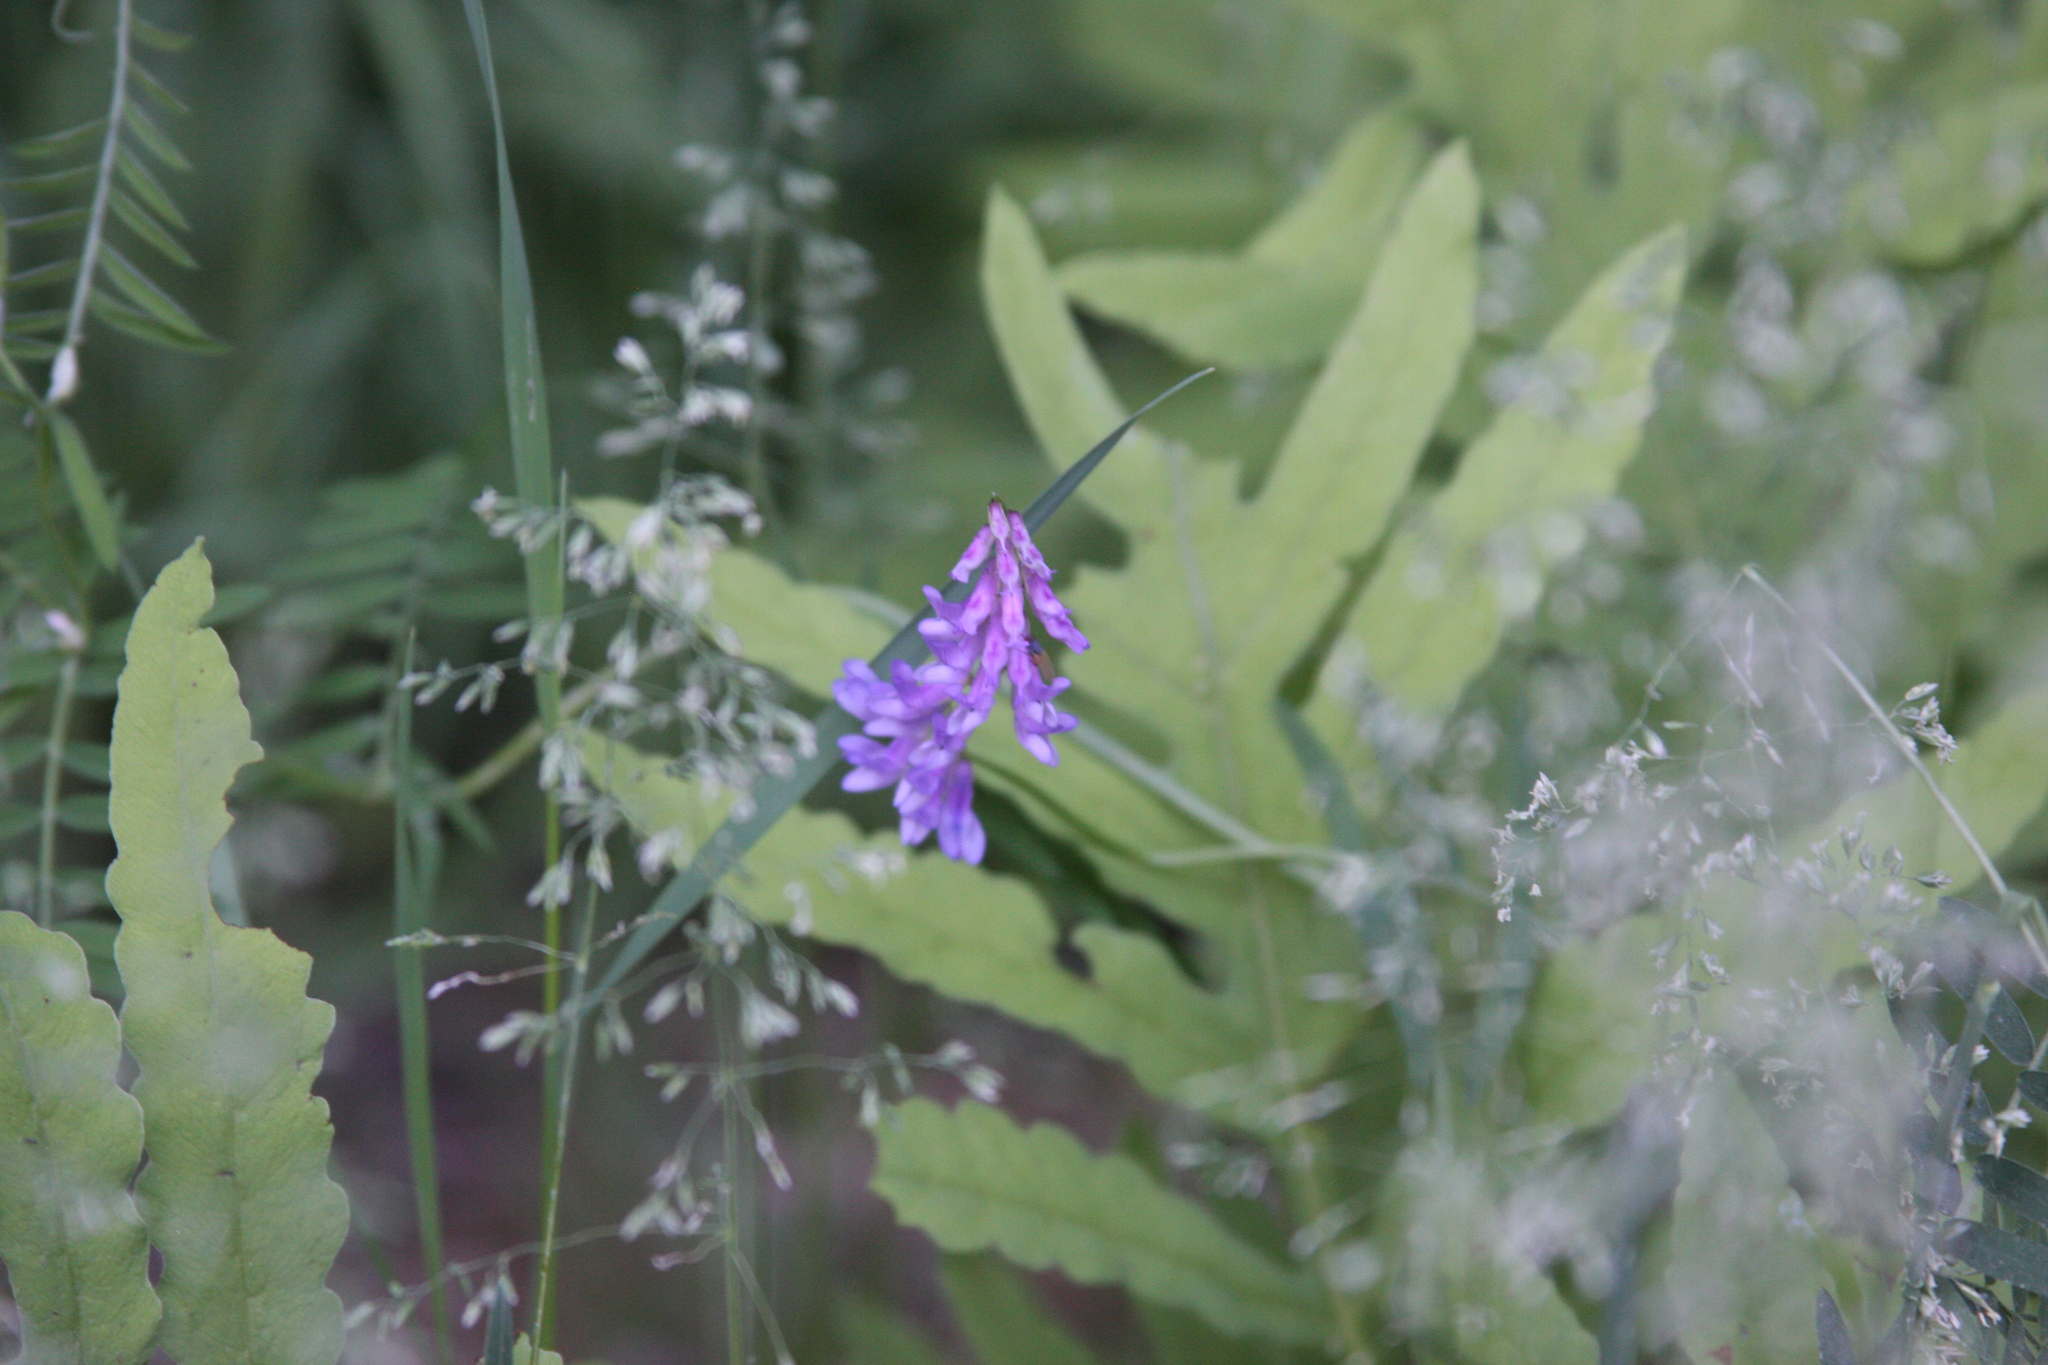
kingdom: Plantae
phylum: Tracheophyta
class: Magnoliopsida
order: Fabales
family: Fabaceae
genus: Vicia
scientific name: Vicia cracca
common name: Bird vetch
